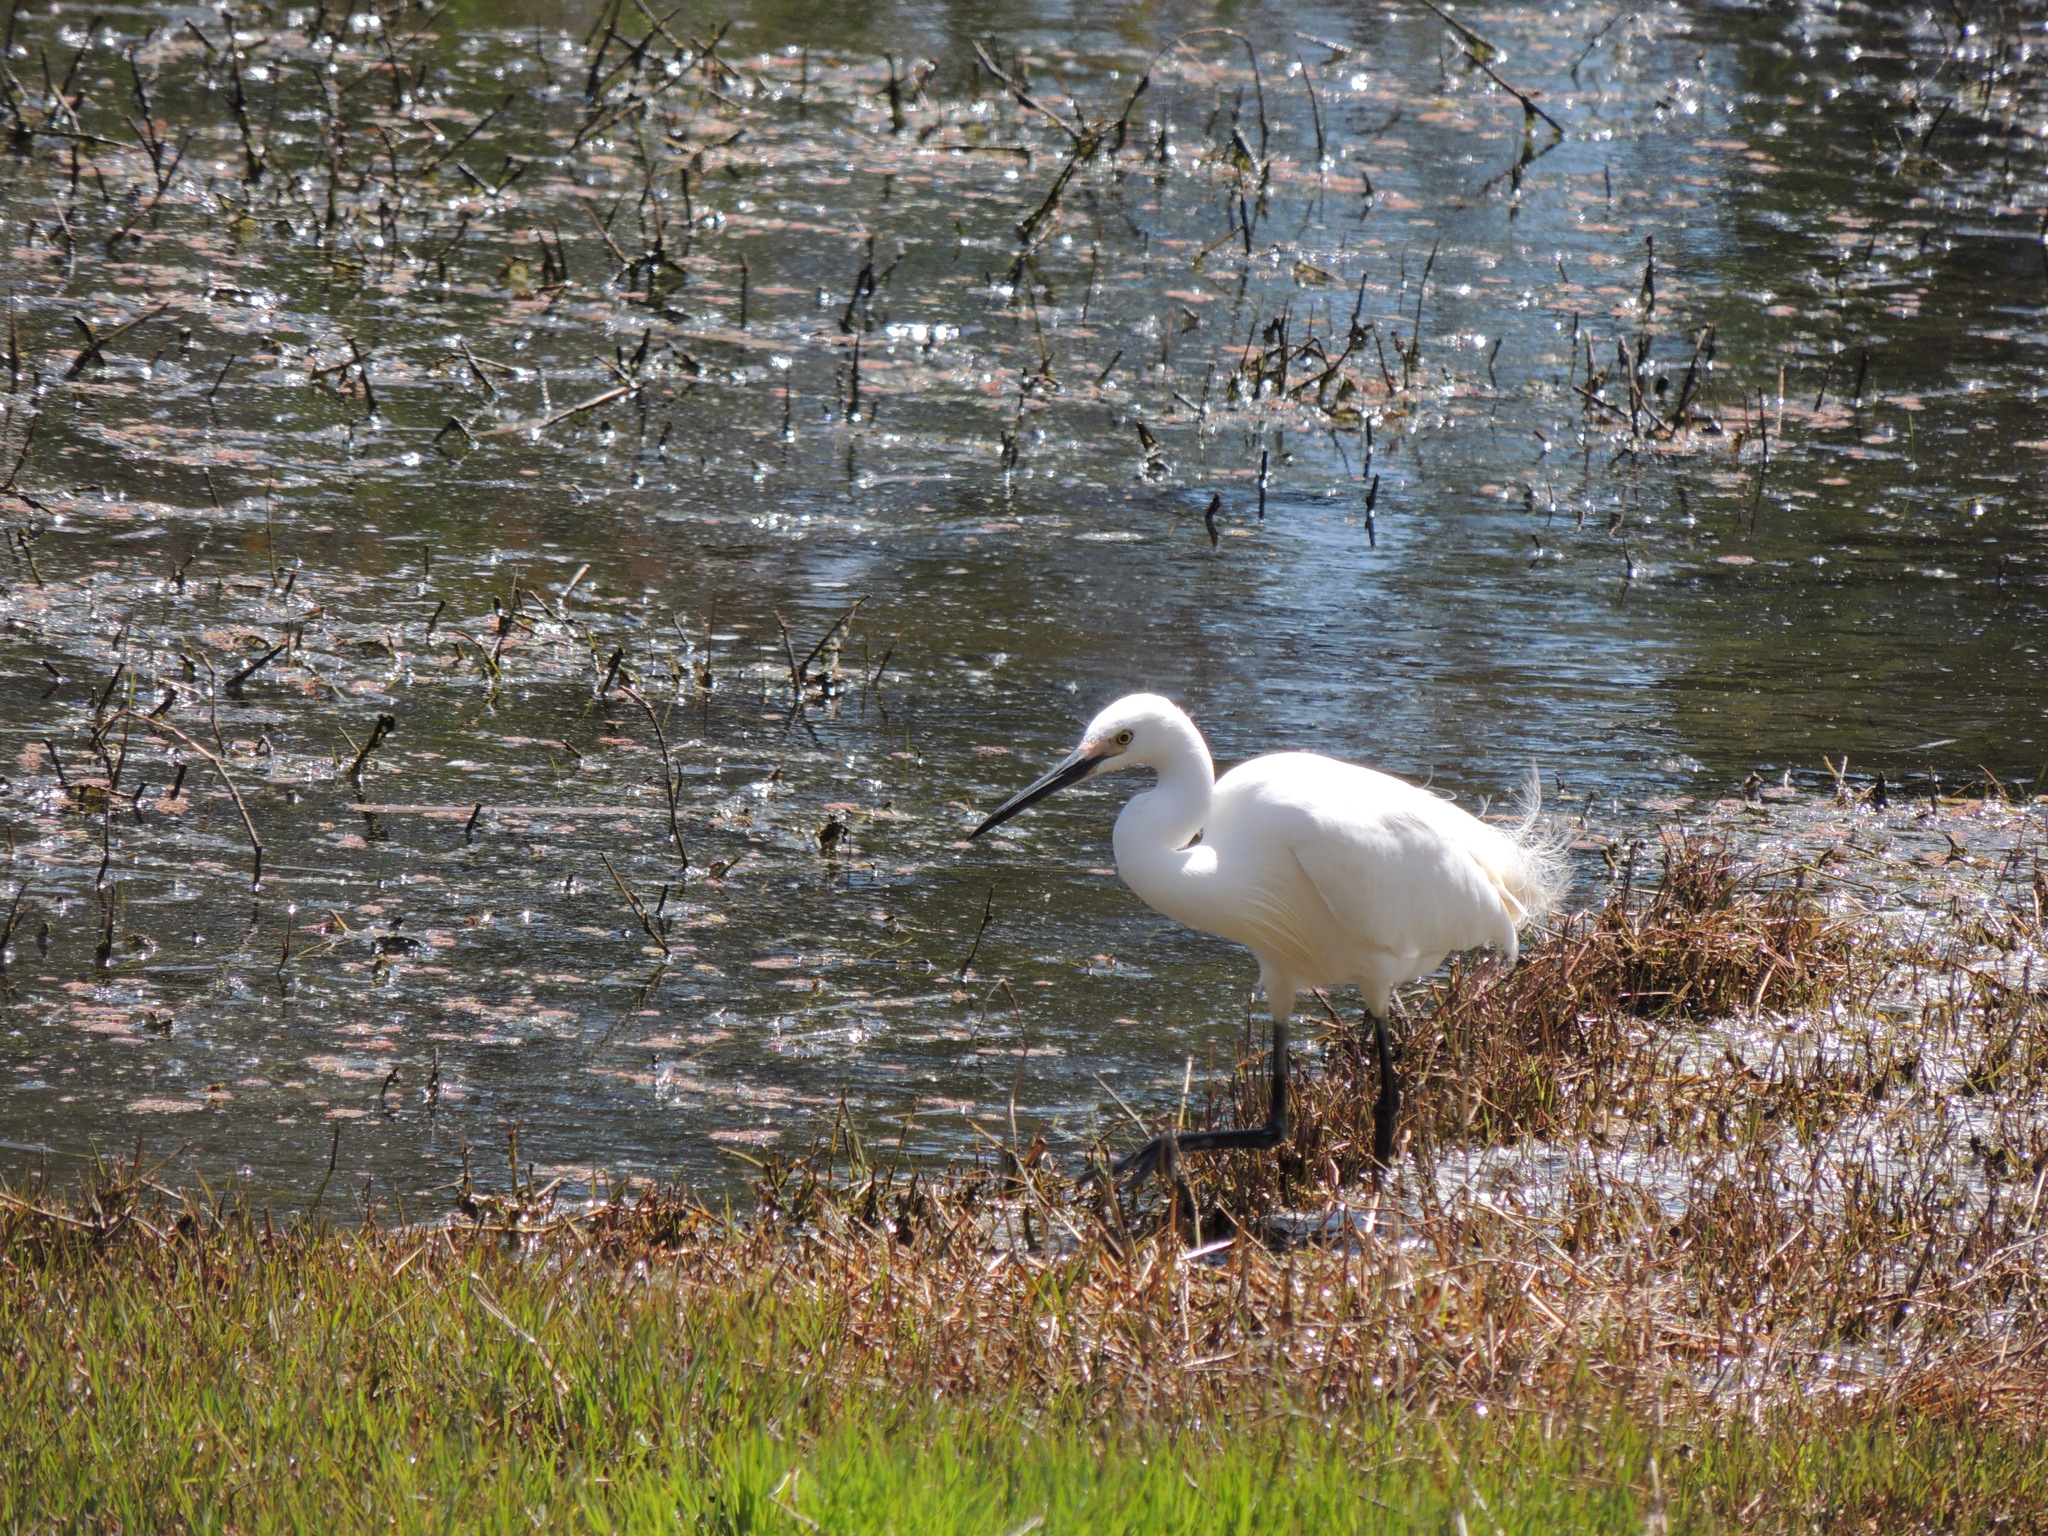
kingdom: Animalia
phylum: Chordata
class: Aves
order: Pelecaniformes
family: Ardeidae
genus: Egretta
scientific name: Egretta garzetta
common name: Little egret
